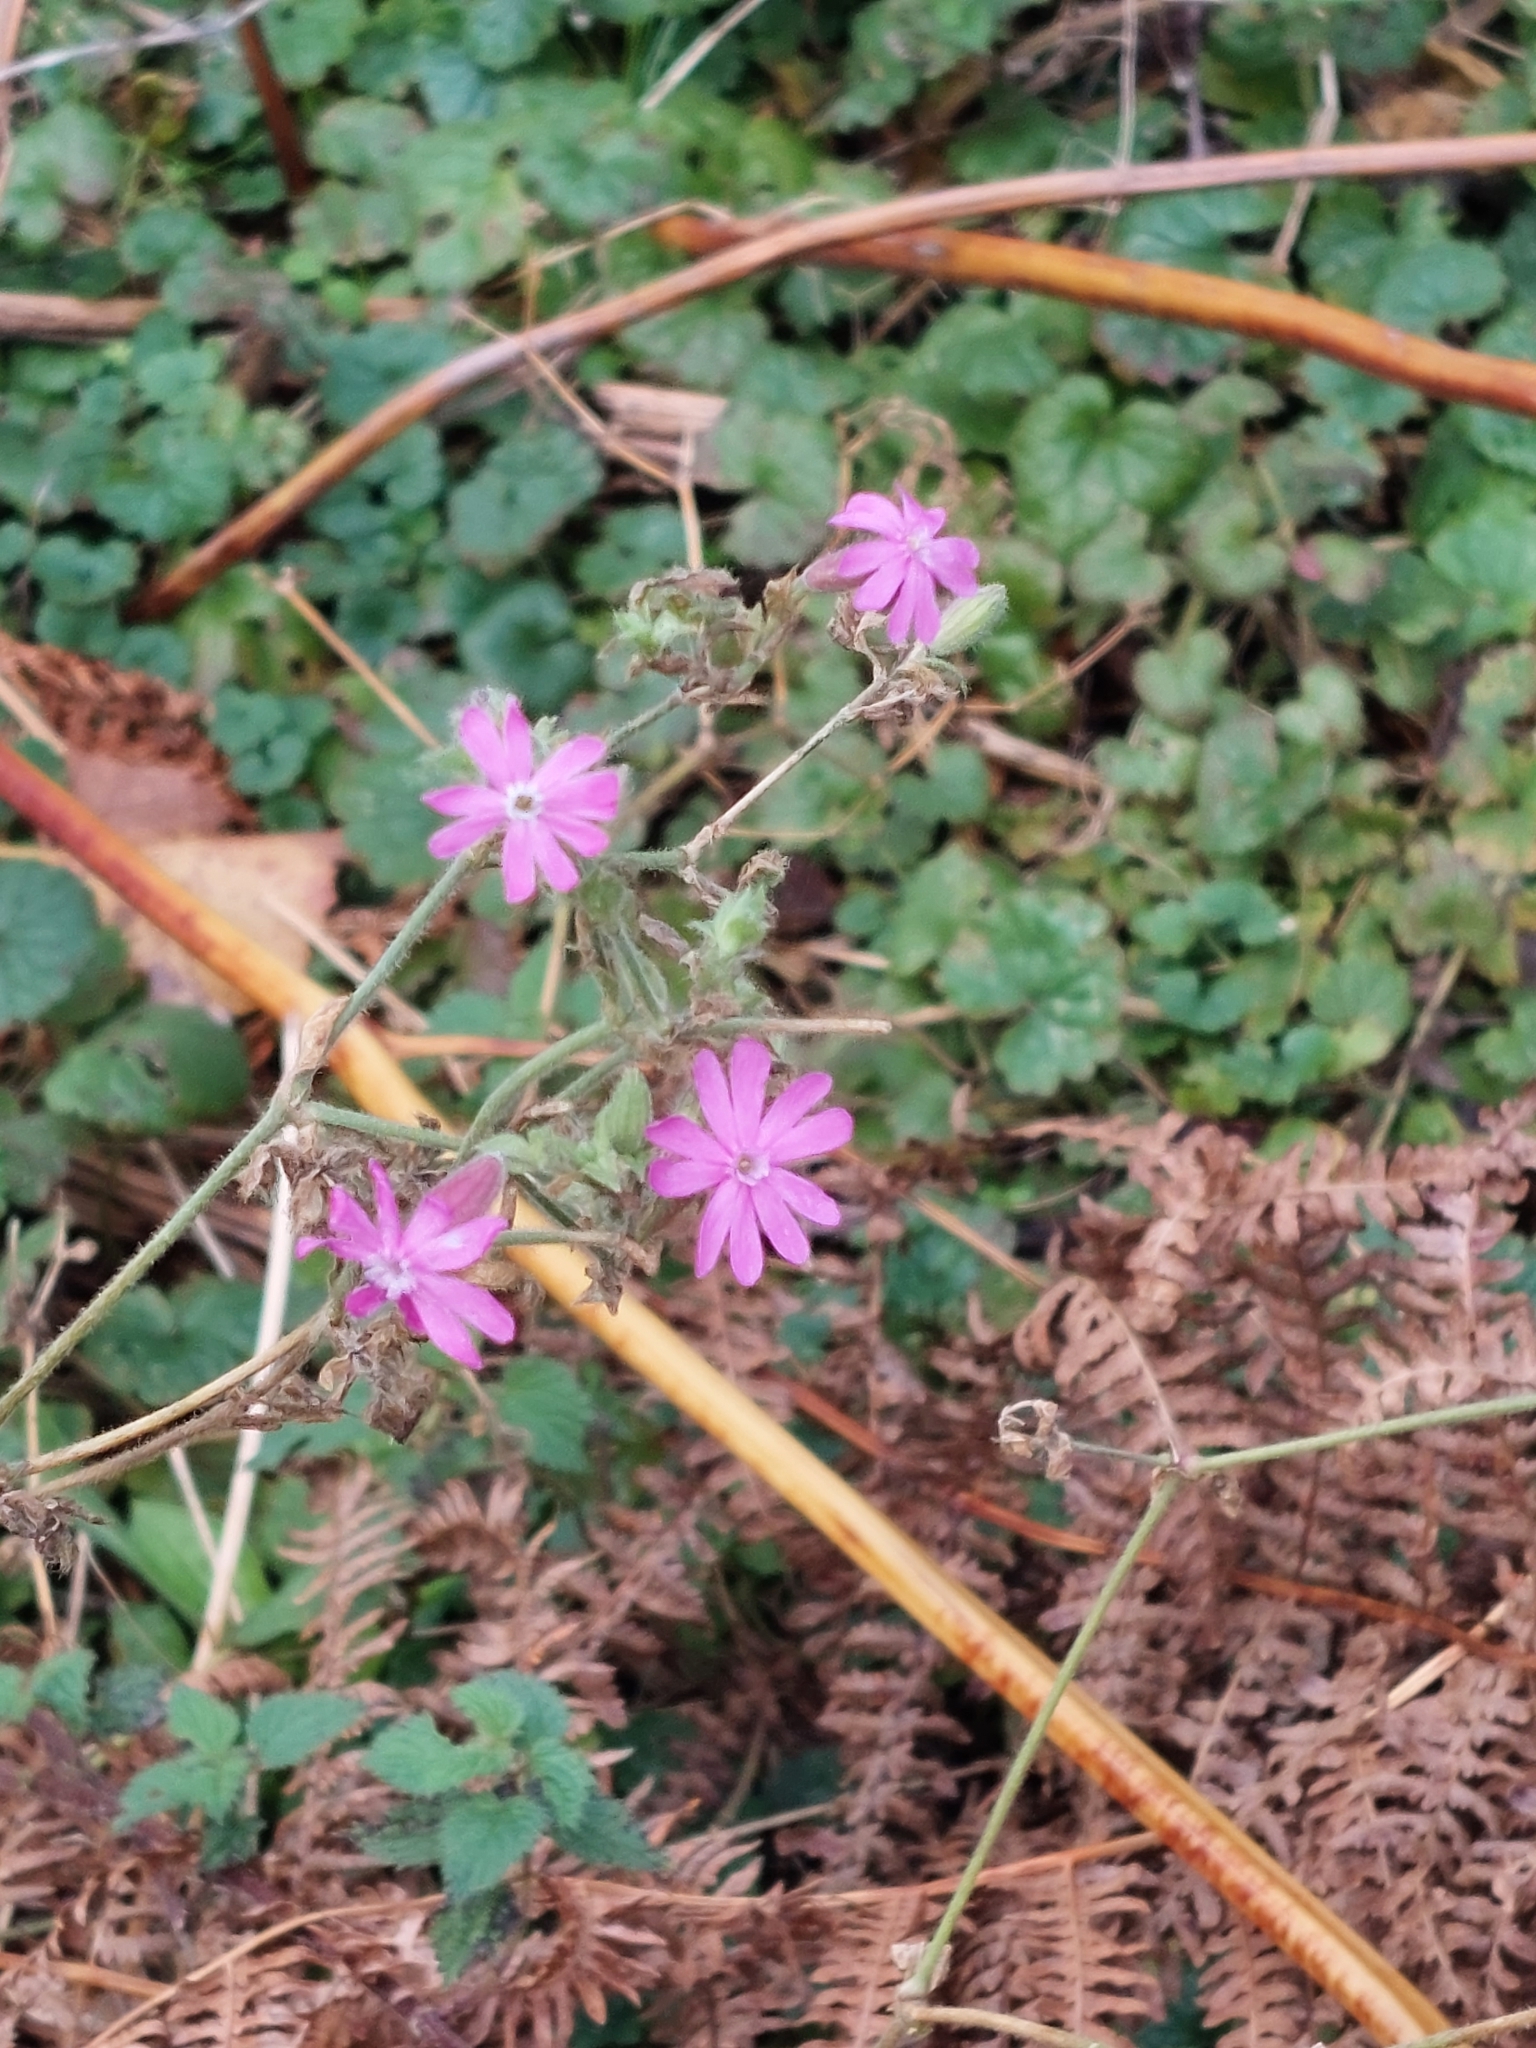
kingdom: Plantae
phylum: Tracheophyta
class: Magnoliopsida
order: Caryophyllales
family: Caryophyllaceae
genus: Silene
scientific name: Silene dioica
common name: Red campion
